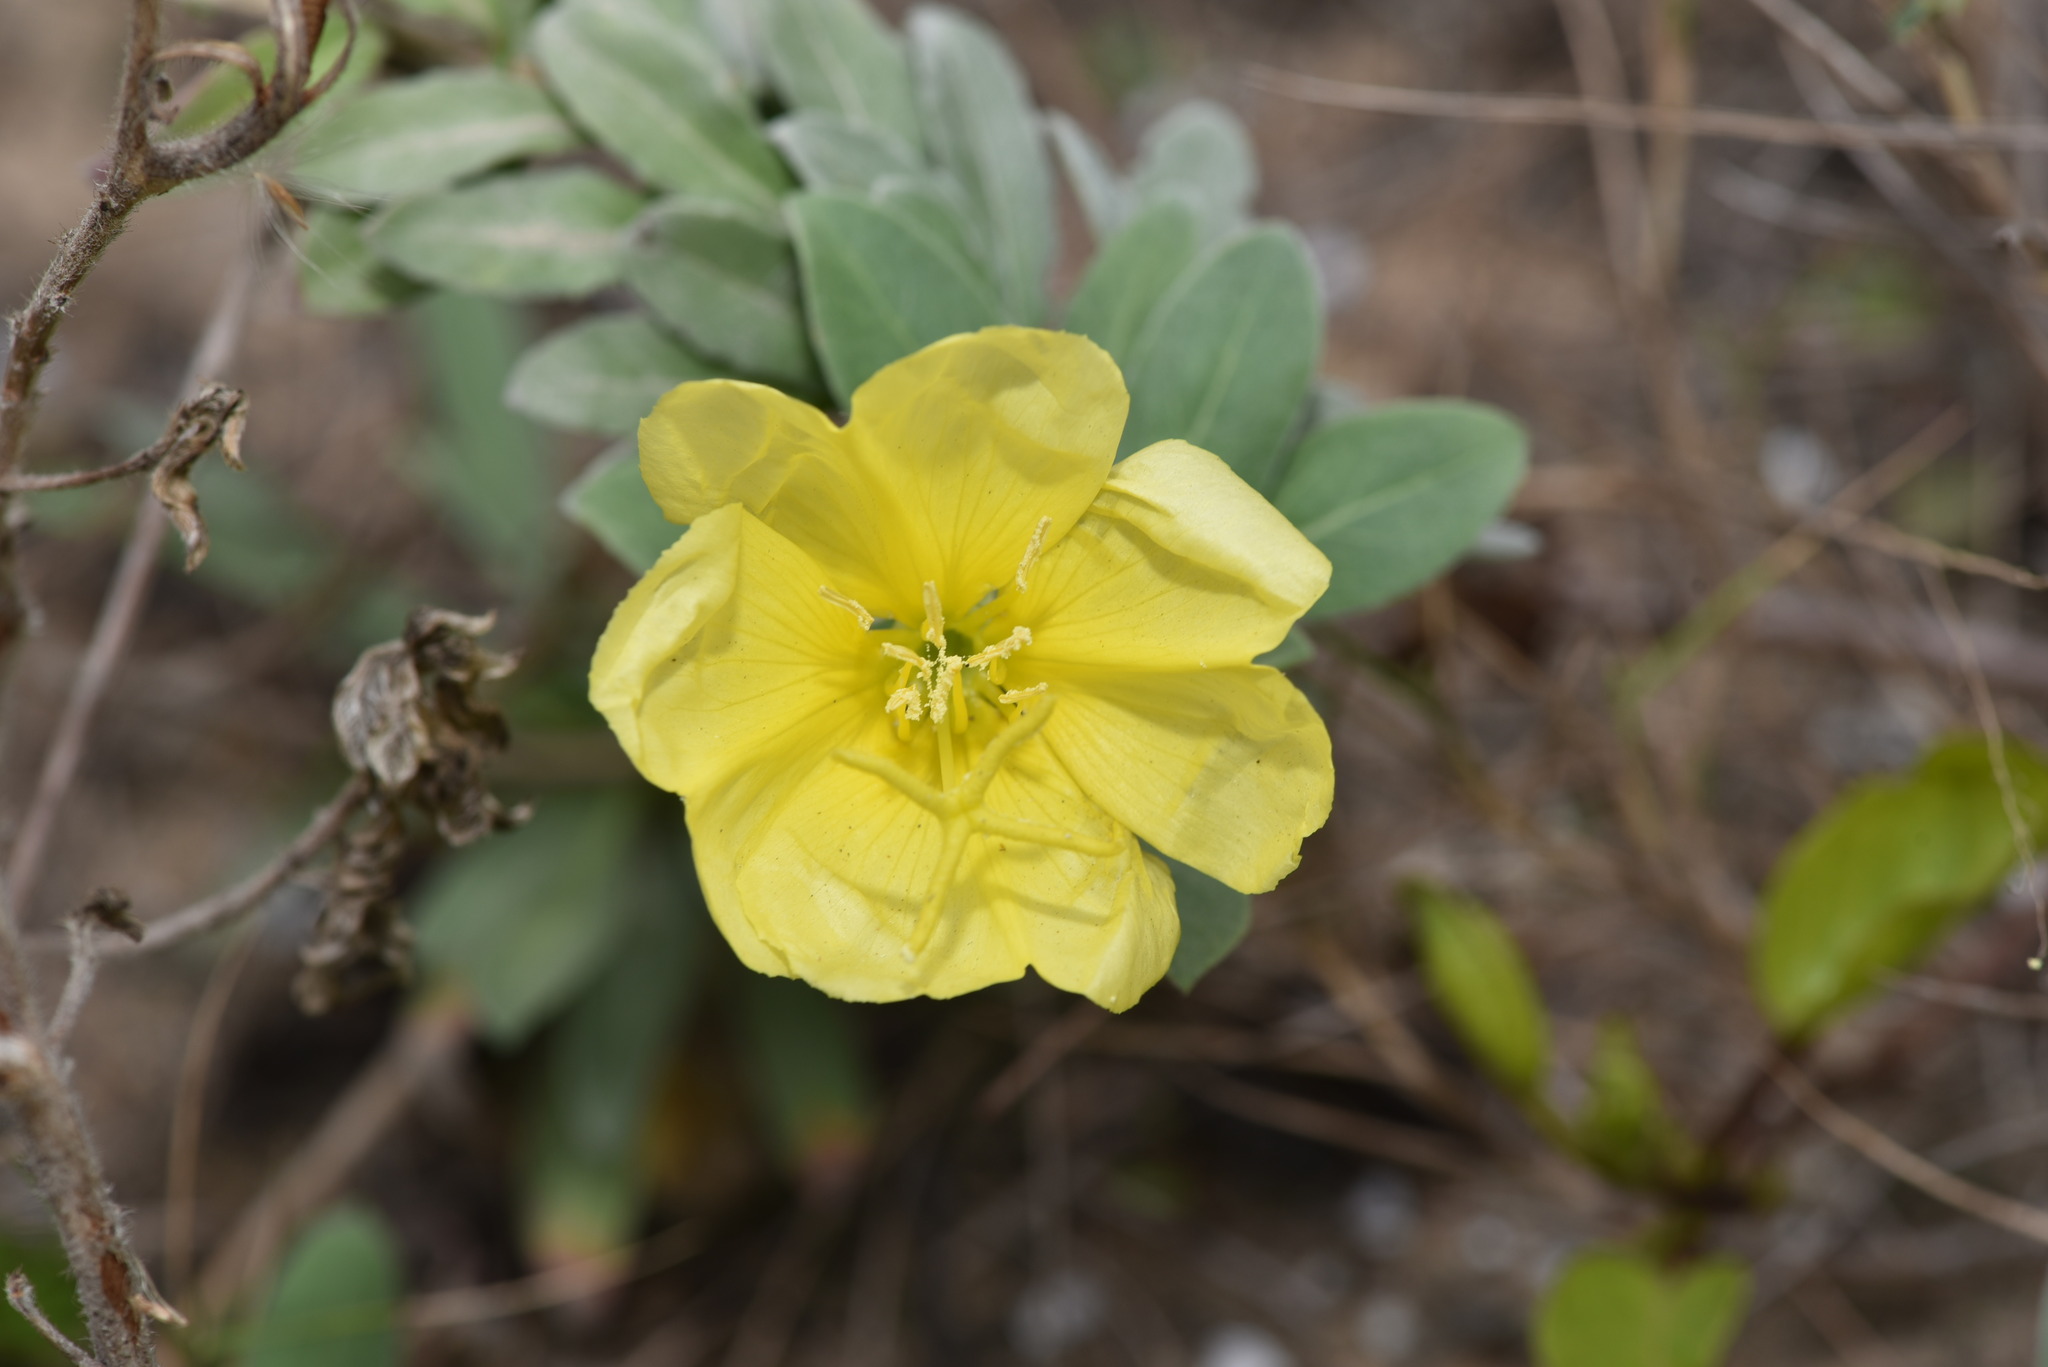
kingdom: Plantae
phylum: Tracheophyta
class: Magnoliopsida
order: Myrtales
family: Onagraceae
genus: Oenothera
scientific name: Oenothera drummondii
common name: Beach evening-primrose
